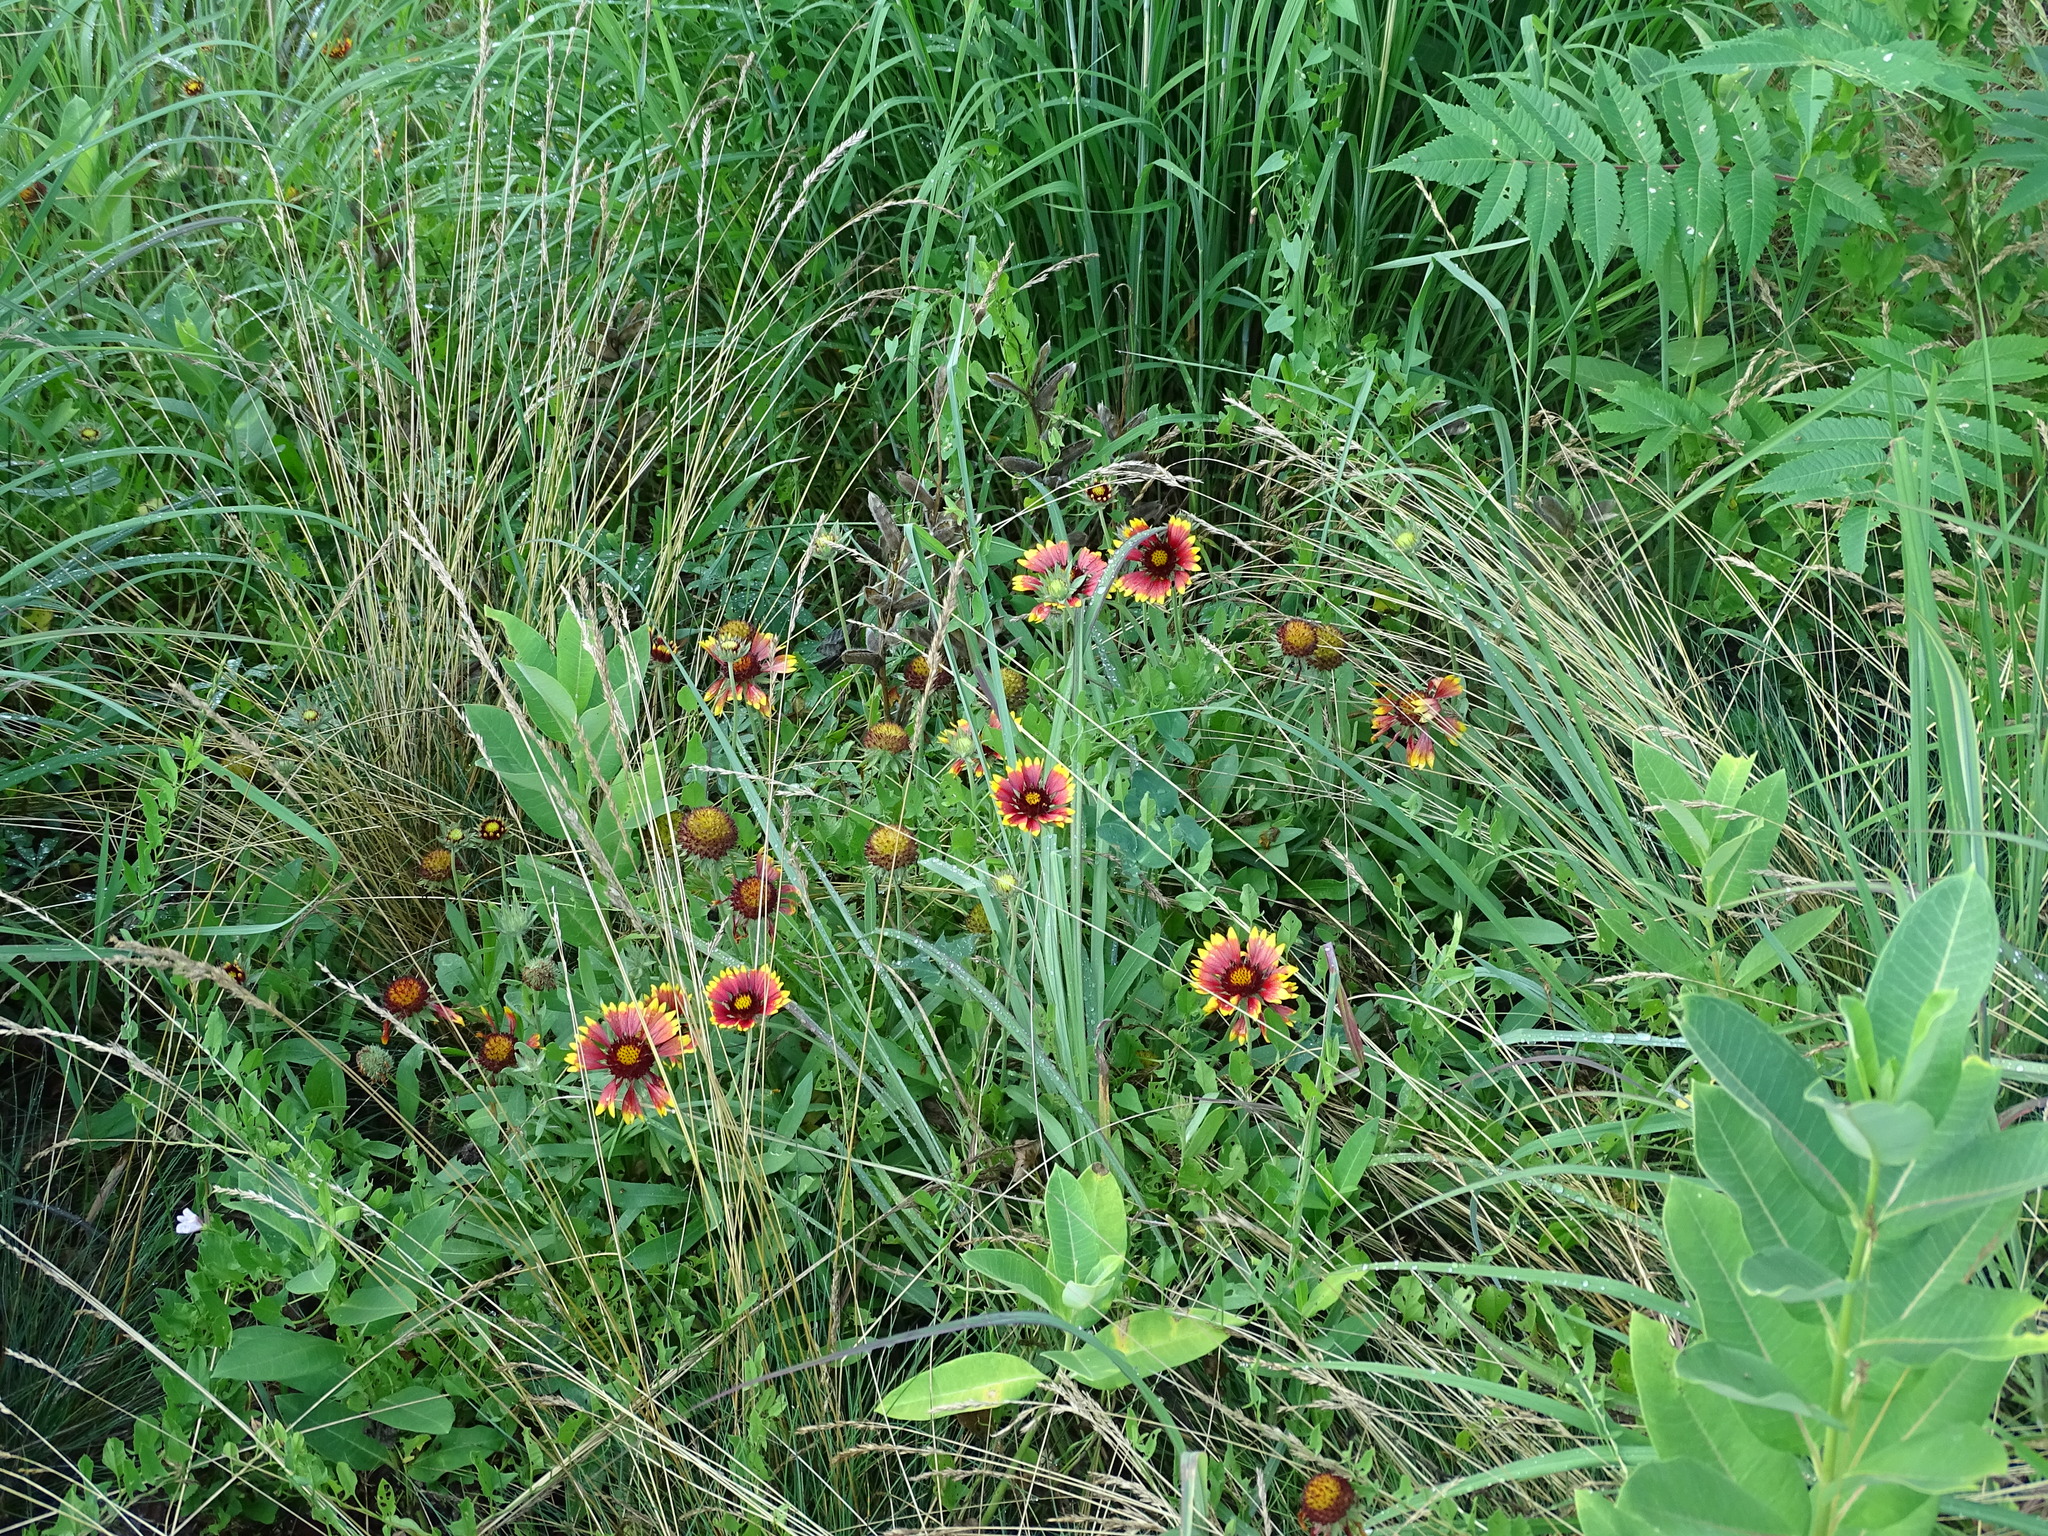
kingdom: Plantae
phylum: Tracheophyta
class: Magnoliopsida
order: Asterales
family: Asteraceae
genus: Gaillardia
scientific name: Gaillardia pulchella
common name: Firewheel
